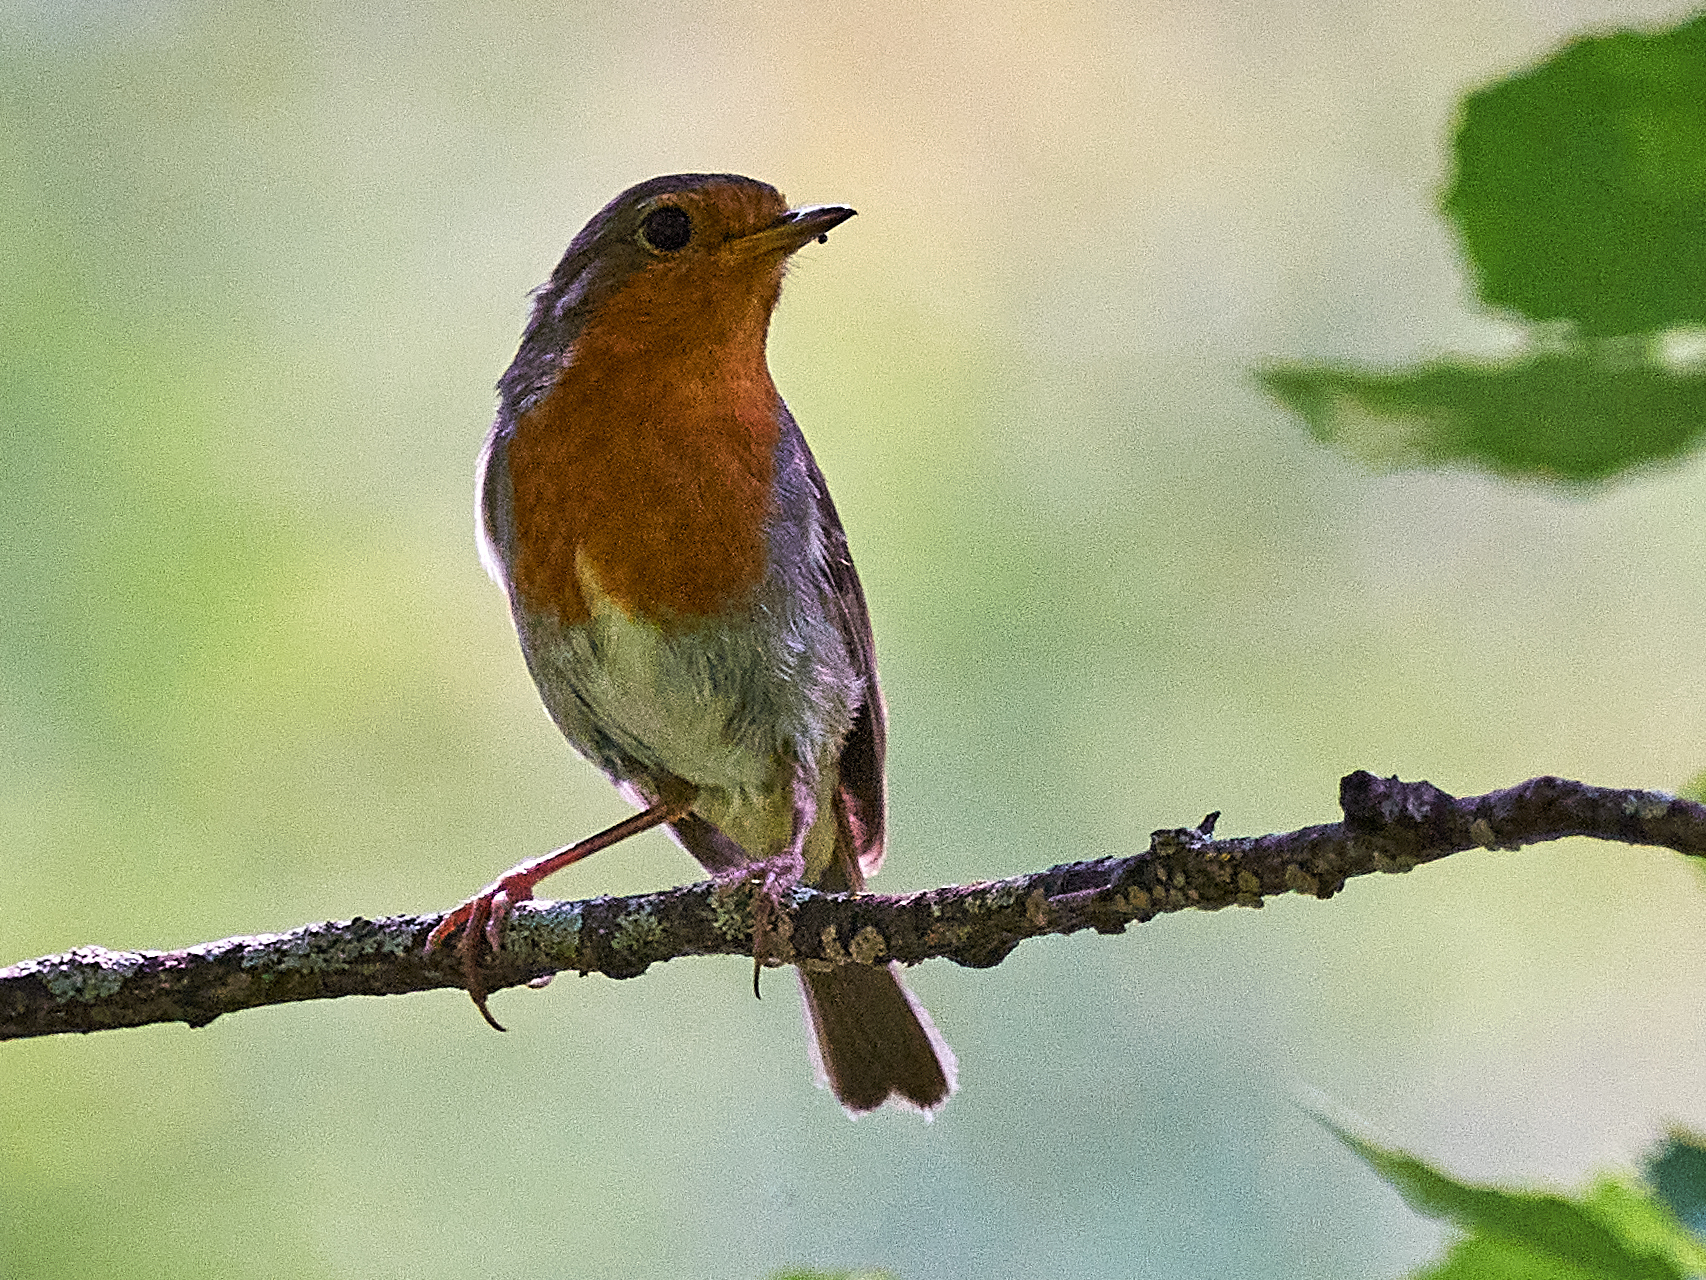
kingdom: Animalia
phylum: Chordata
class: Aves
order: Passeriformes
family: Muscicapidae
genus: Erithacus
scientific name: Erithacus rubecula
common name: European robin
